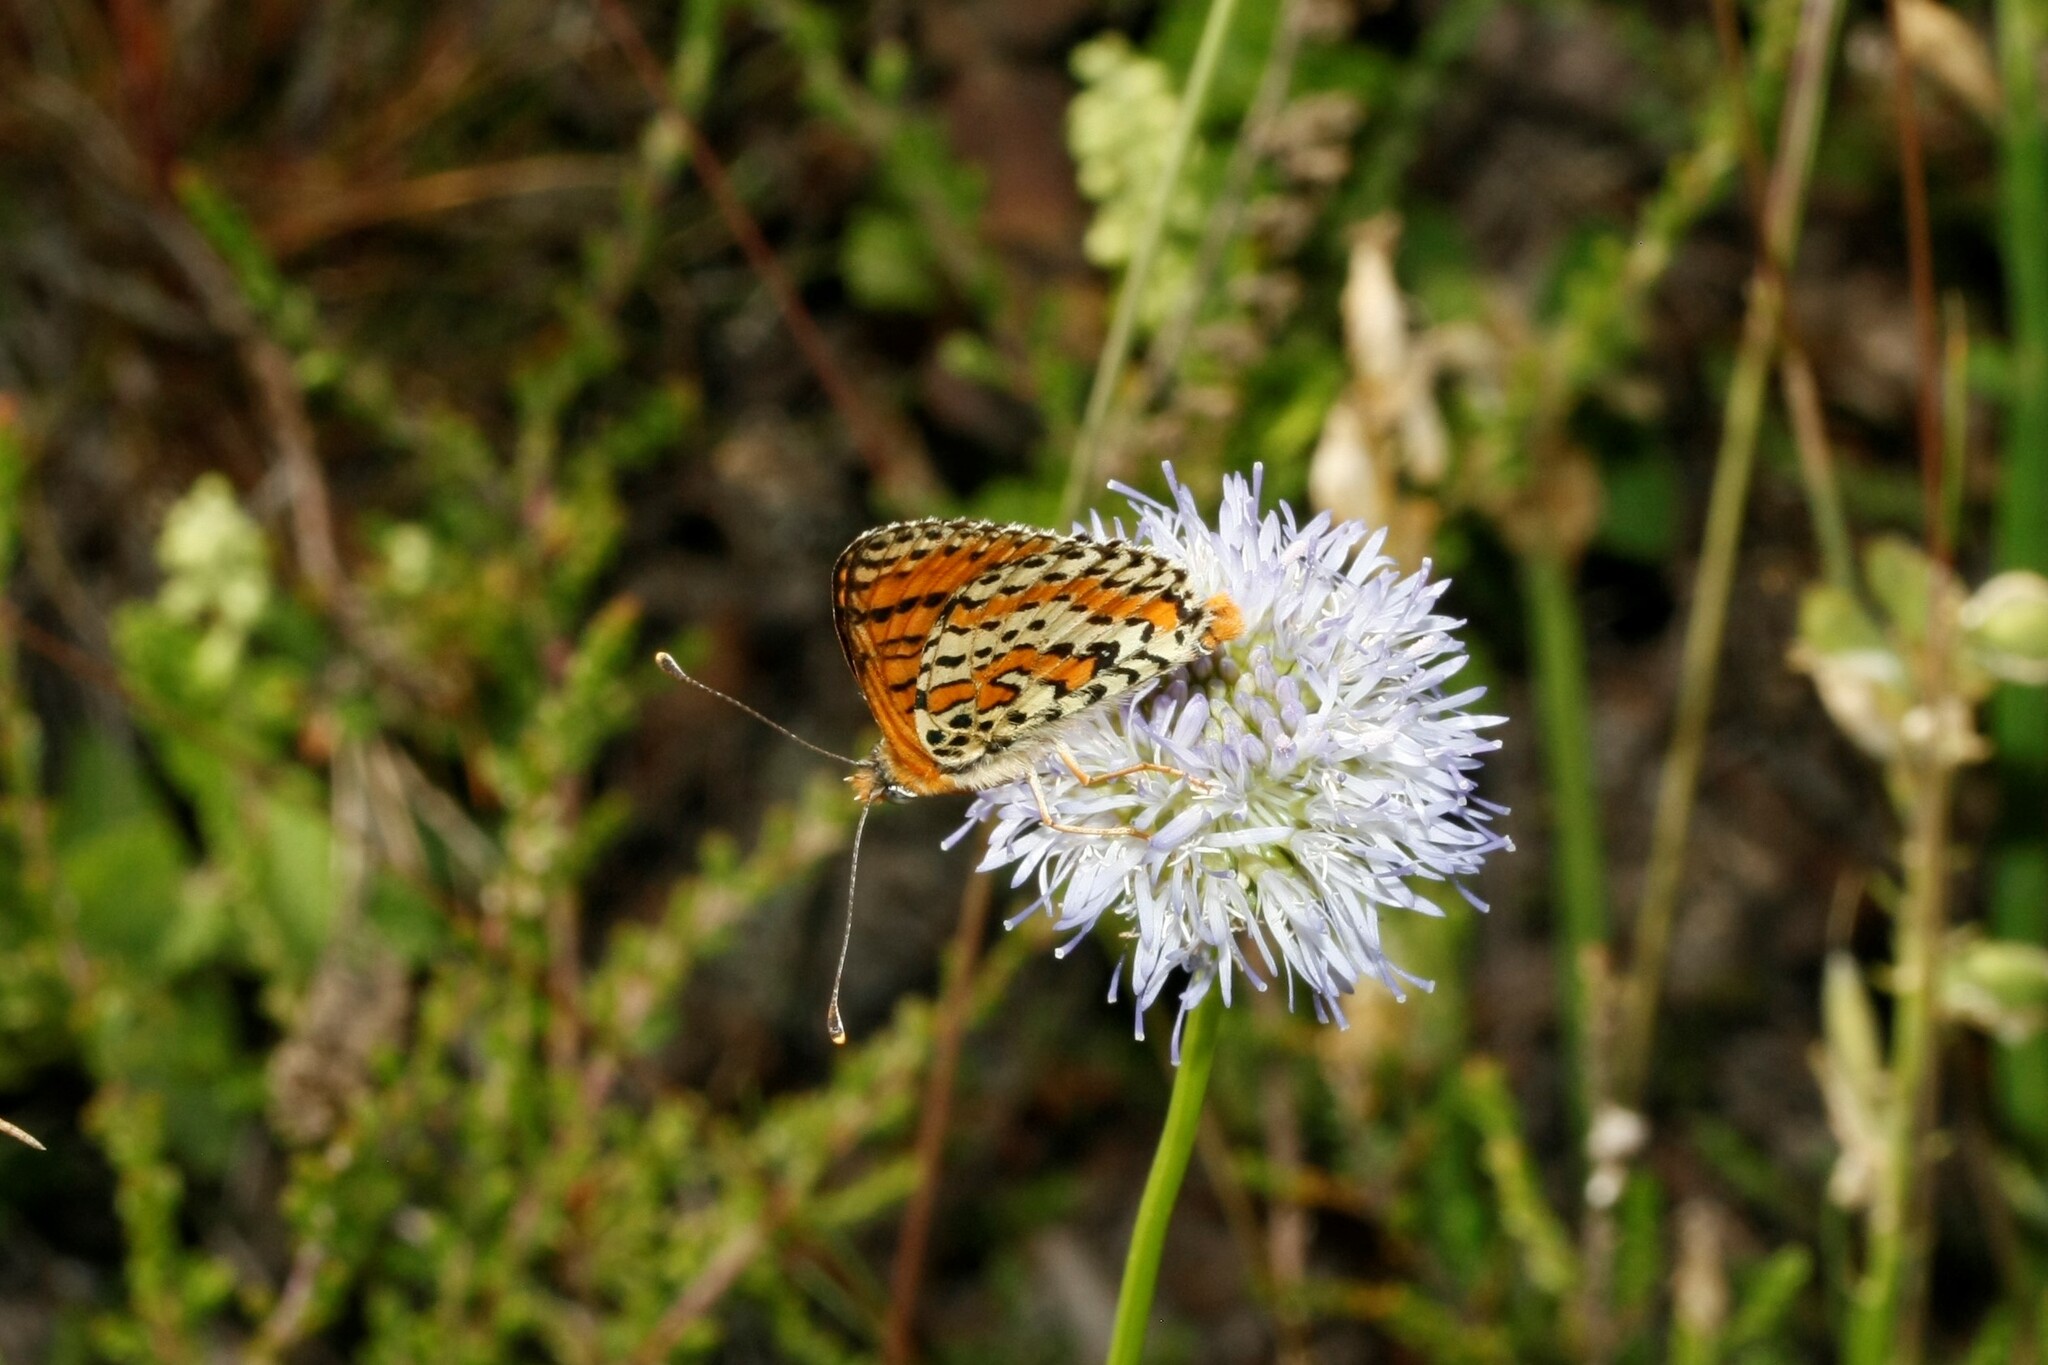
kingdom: Animalia
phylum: Arthropoda
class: Insecta
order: Lepidoptera
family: Nymphalidae
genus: Melitaea
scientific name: Melitaea didyma
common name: Spotted fritillary
